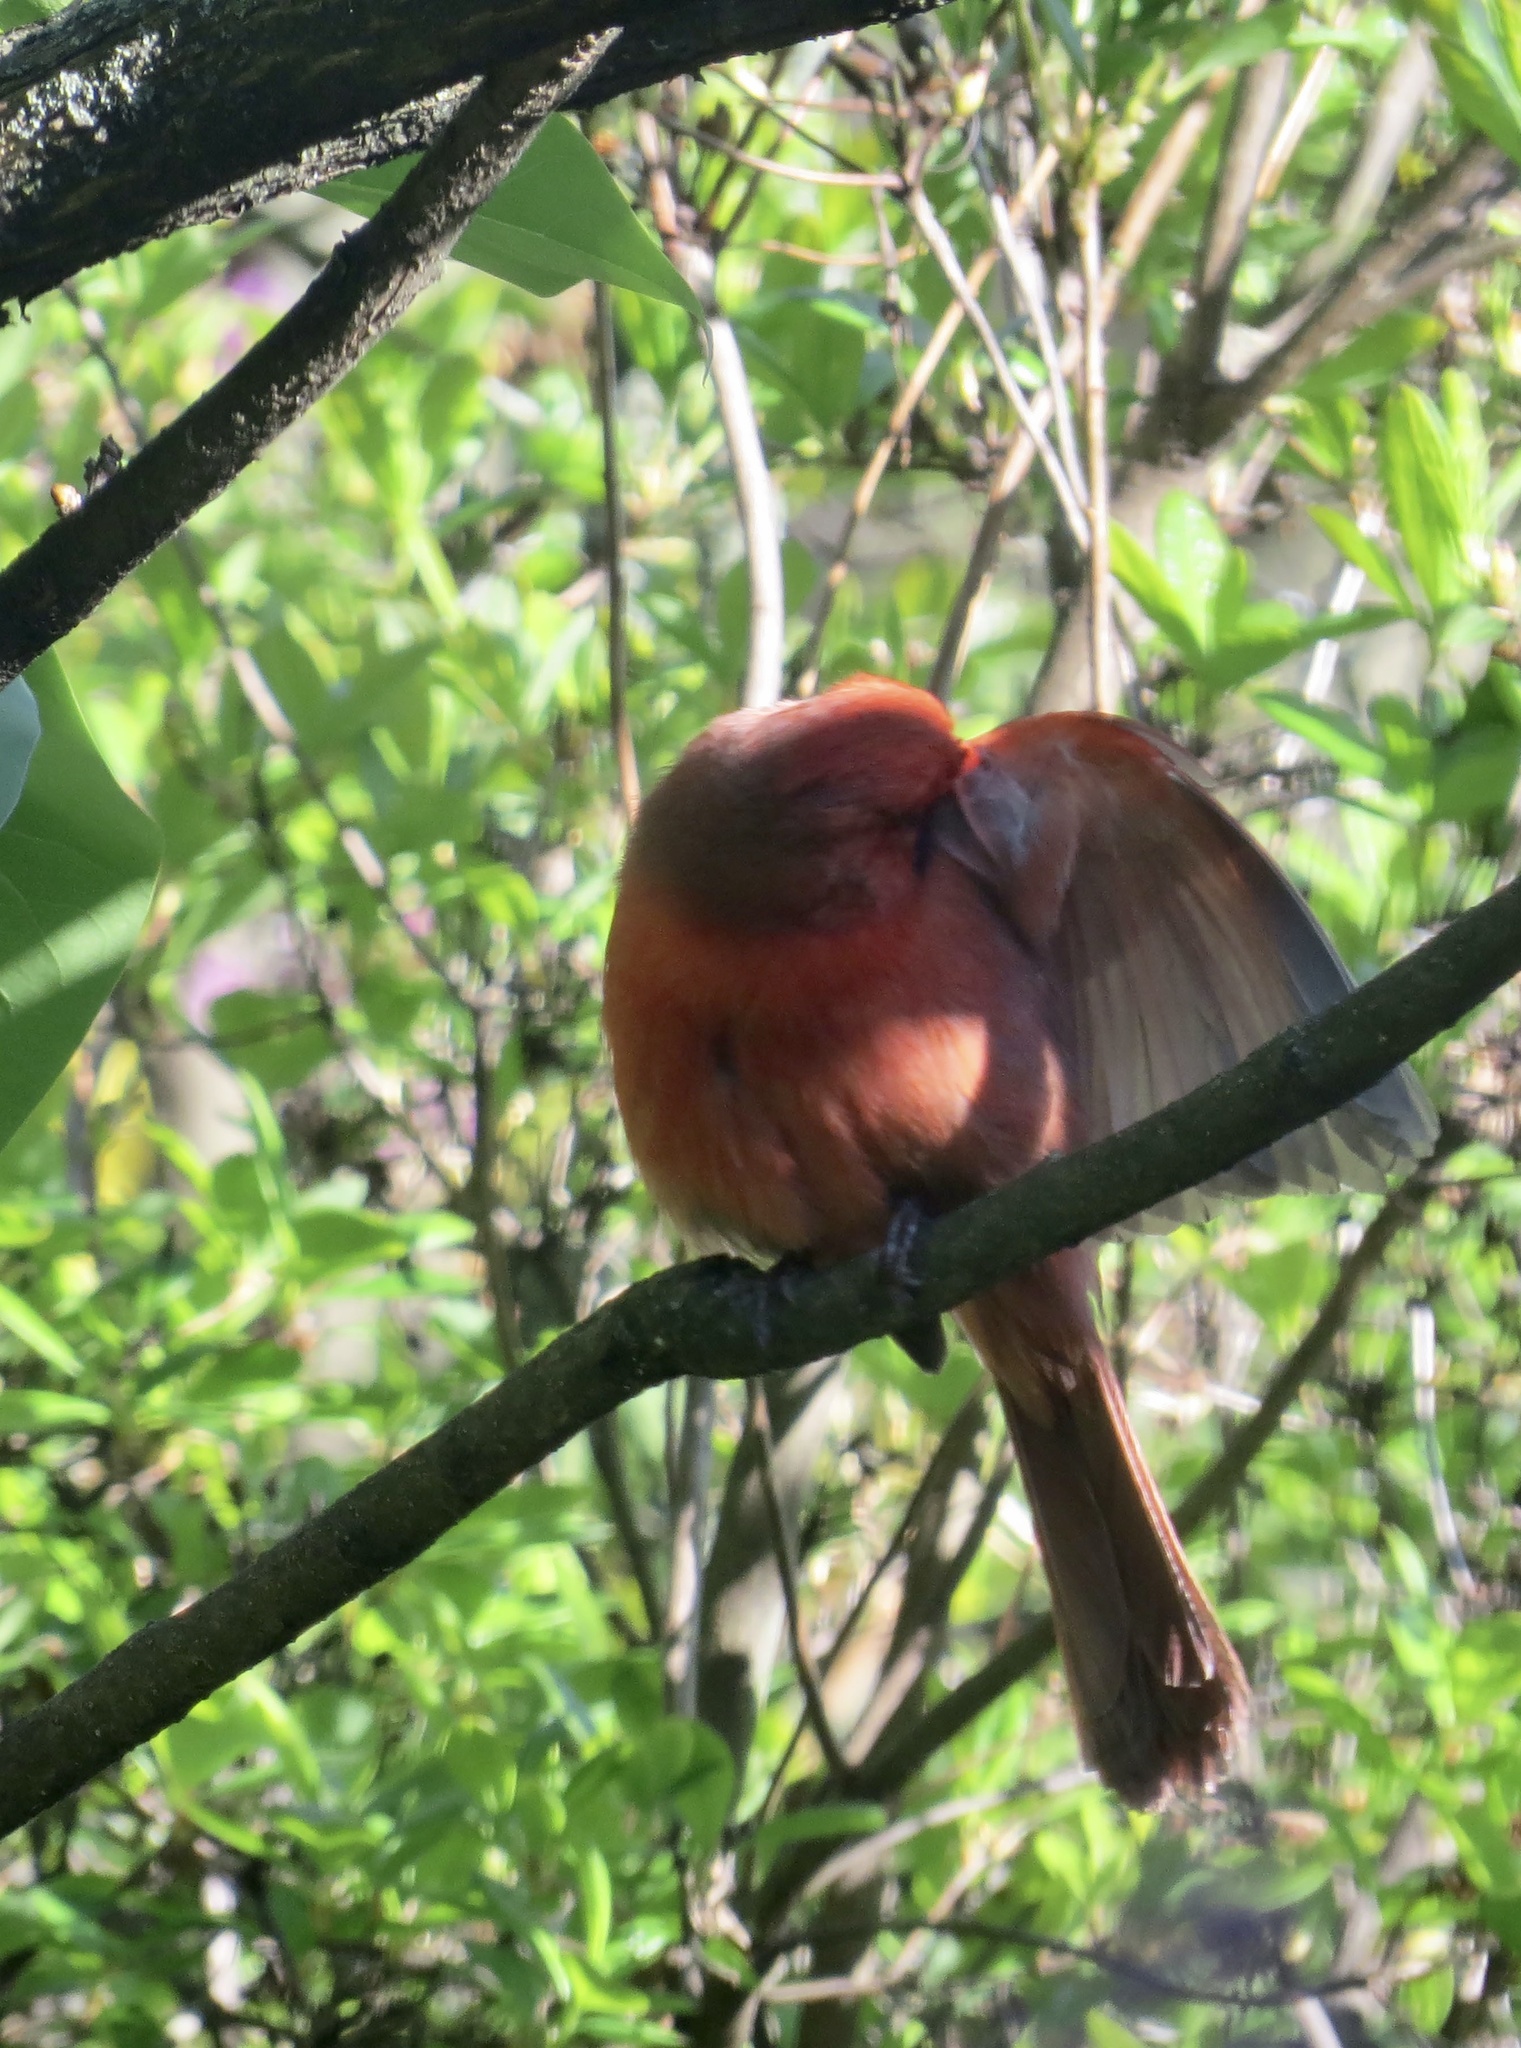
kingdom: Animalia
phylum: Chordata
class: Aves
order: Passeriformes
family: Cardinalidae
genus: Cardinalis
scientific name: Cardinalis cardinalis
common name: Northern cardinal
